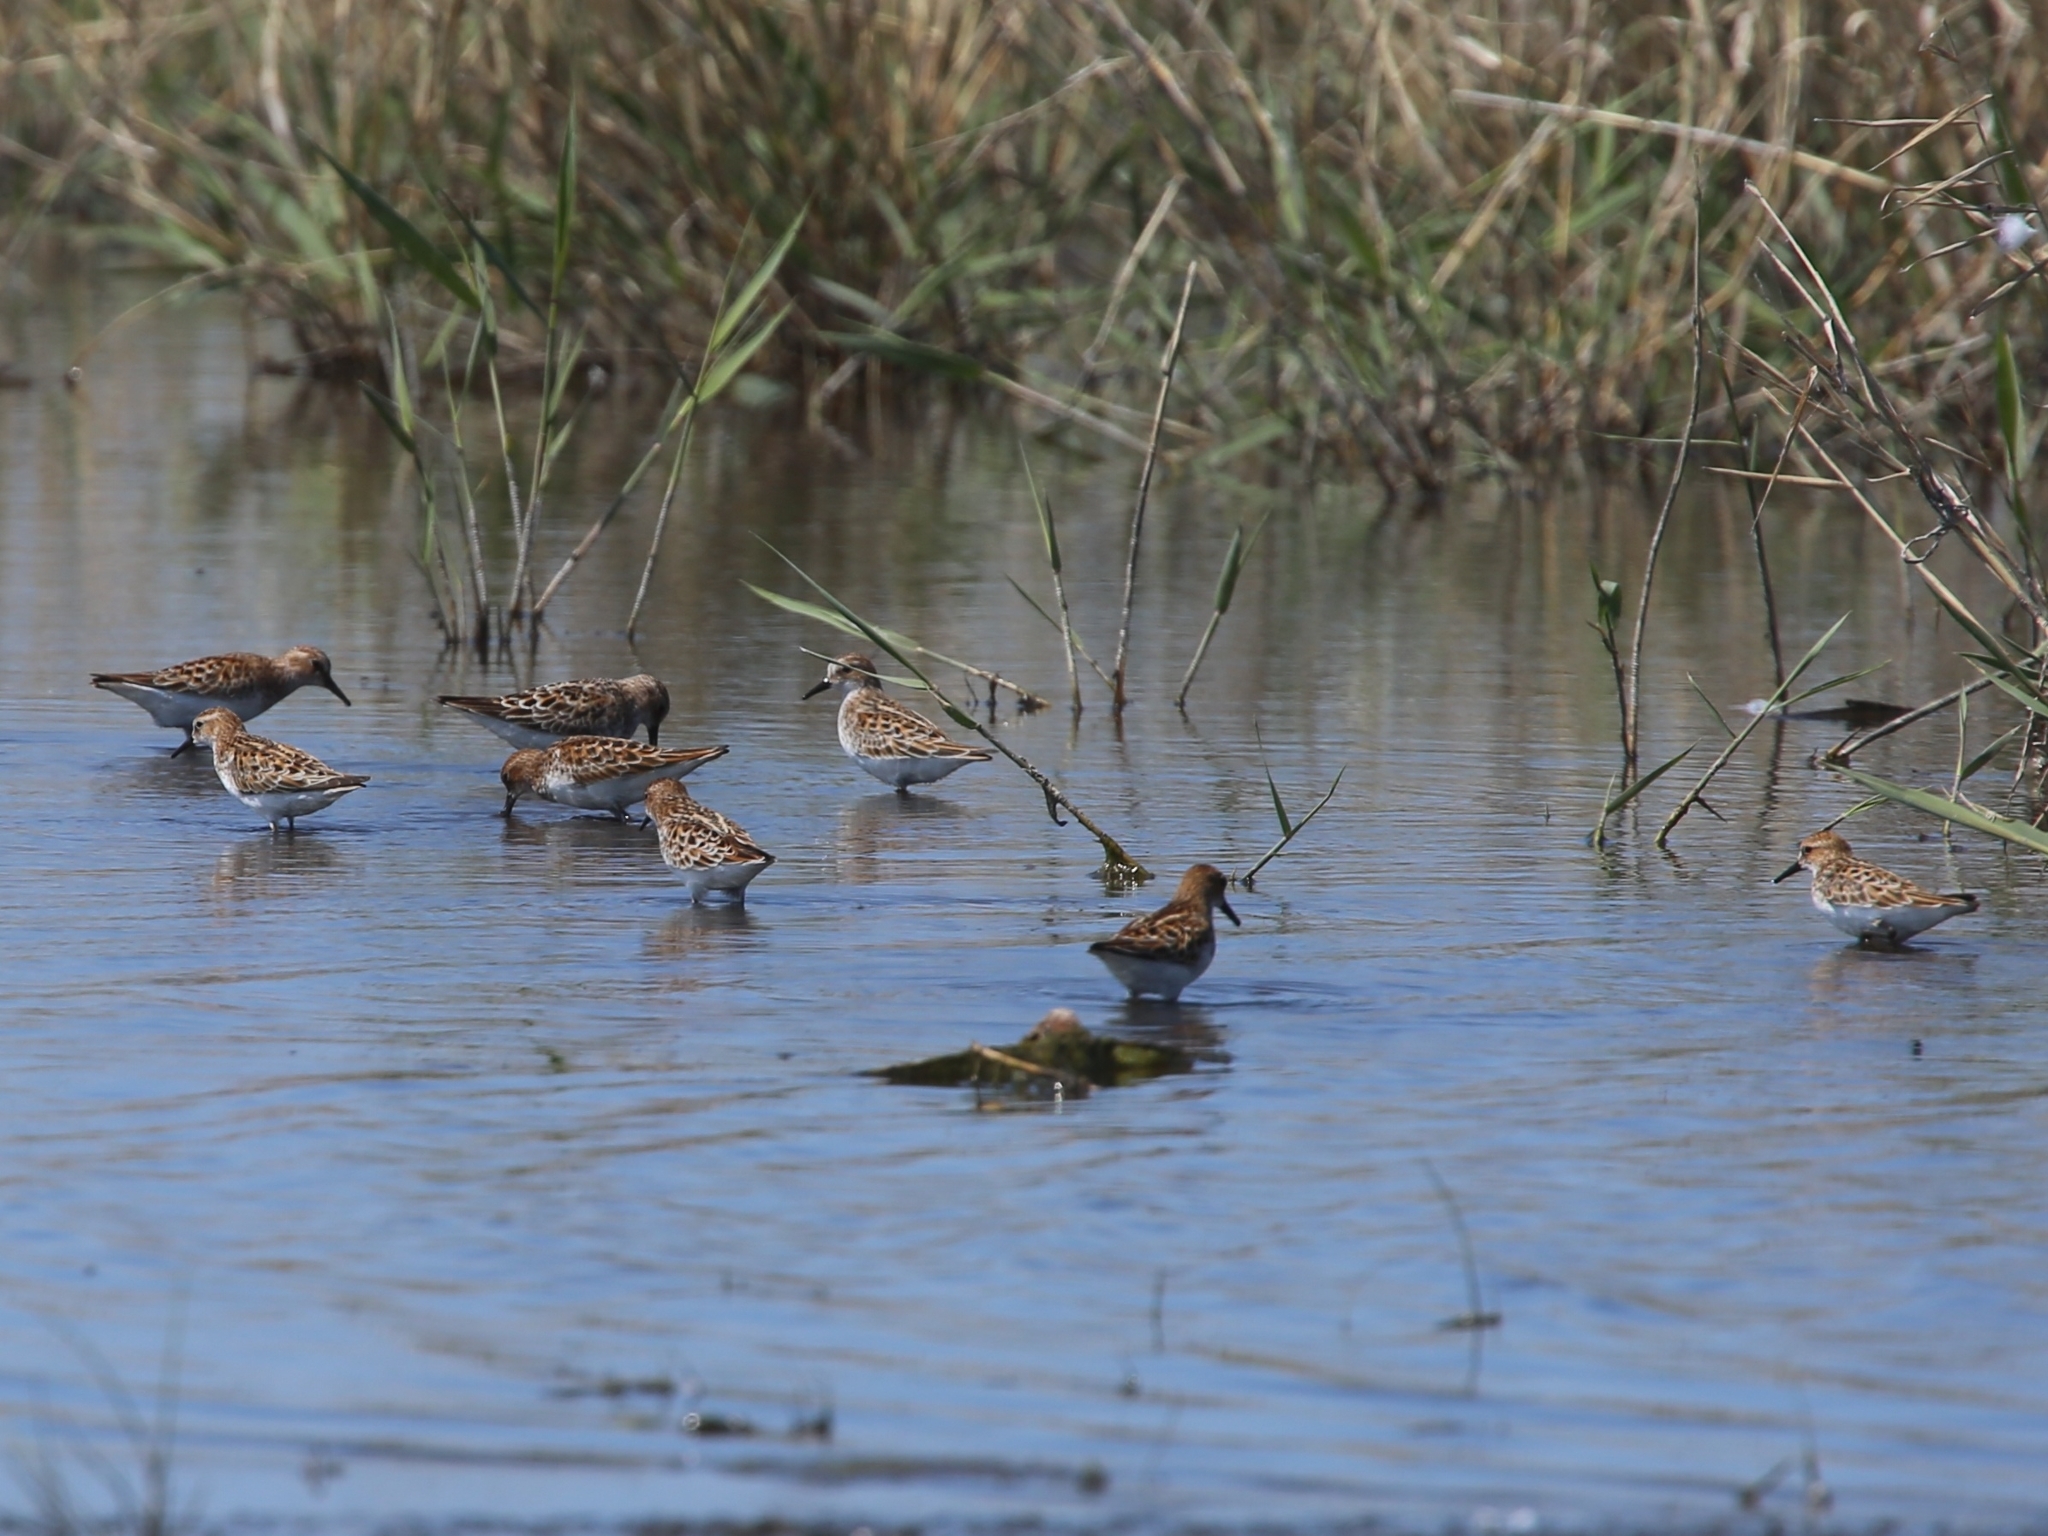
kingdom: Animalia
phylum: Chordata
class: Aves
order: Charadriiformes
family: Scolopacidae
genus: Calidris
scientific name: Calidris minuta
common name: Little stint
